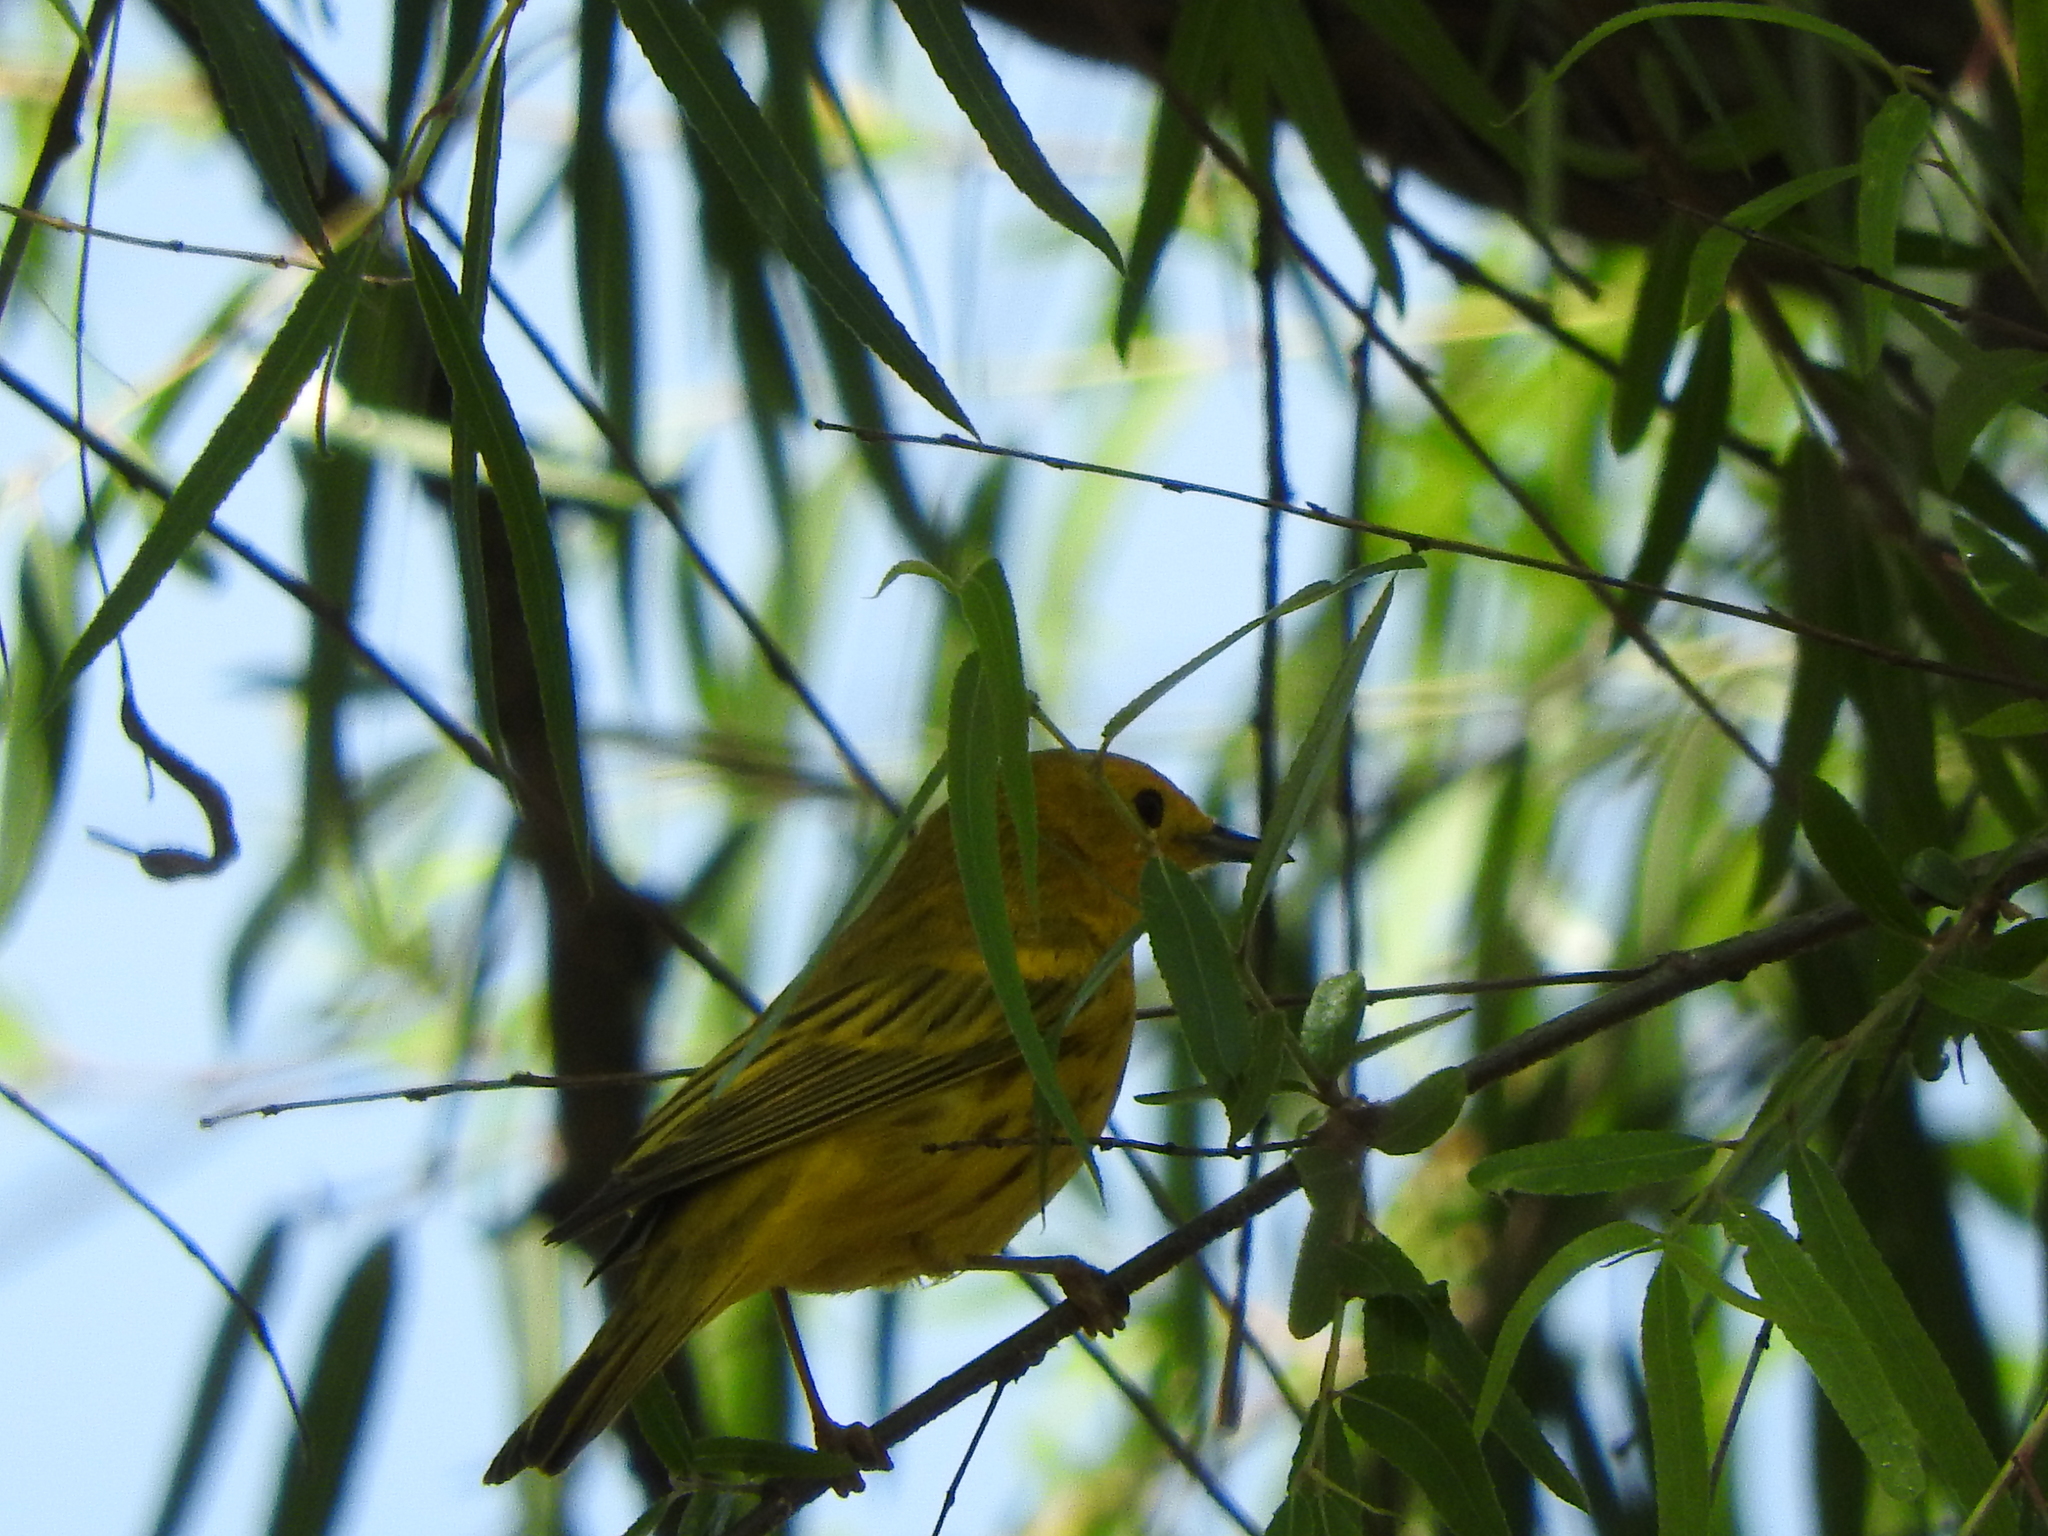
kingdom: Animalia
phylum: Chordata
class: Aves
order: Passeriformes
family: Parulidae
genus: Setophaga
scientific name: Setophaga petechia
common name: Yellow warbler
